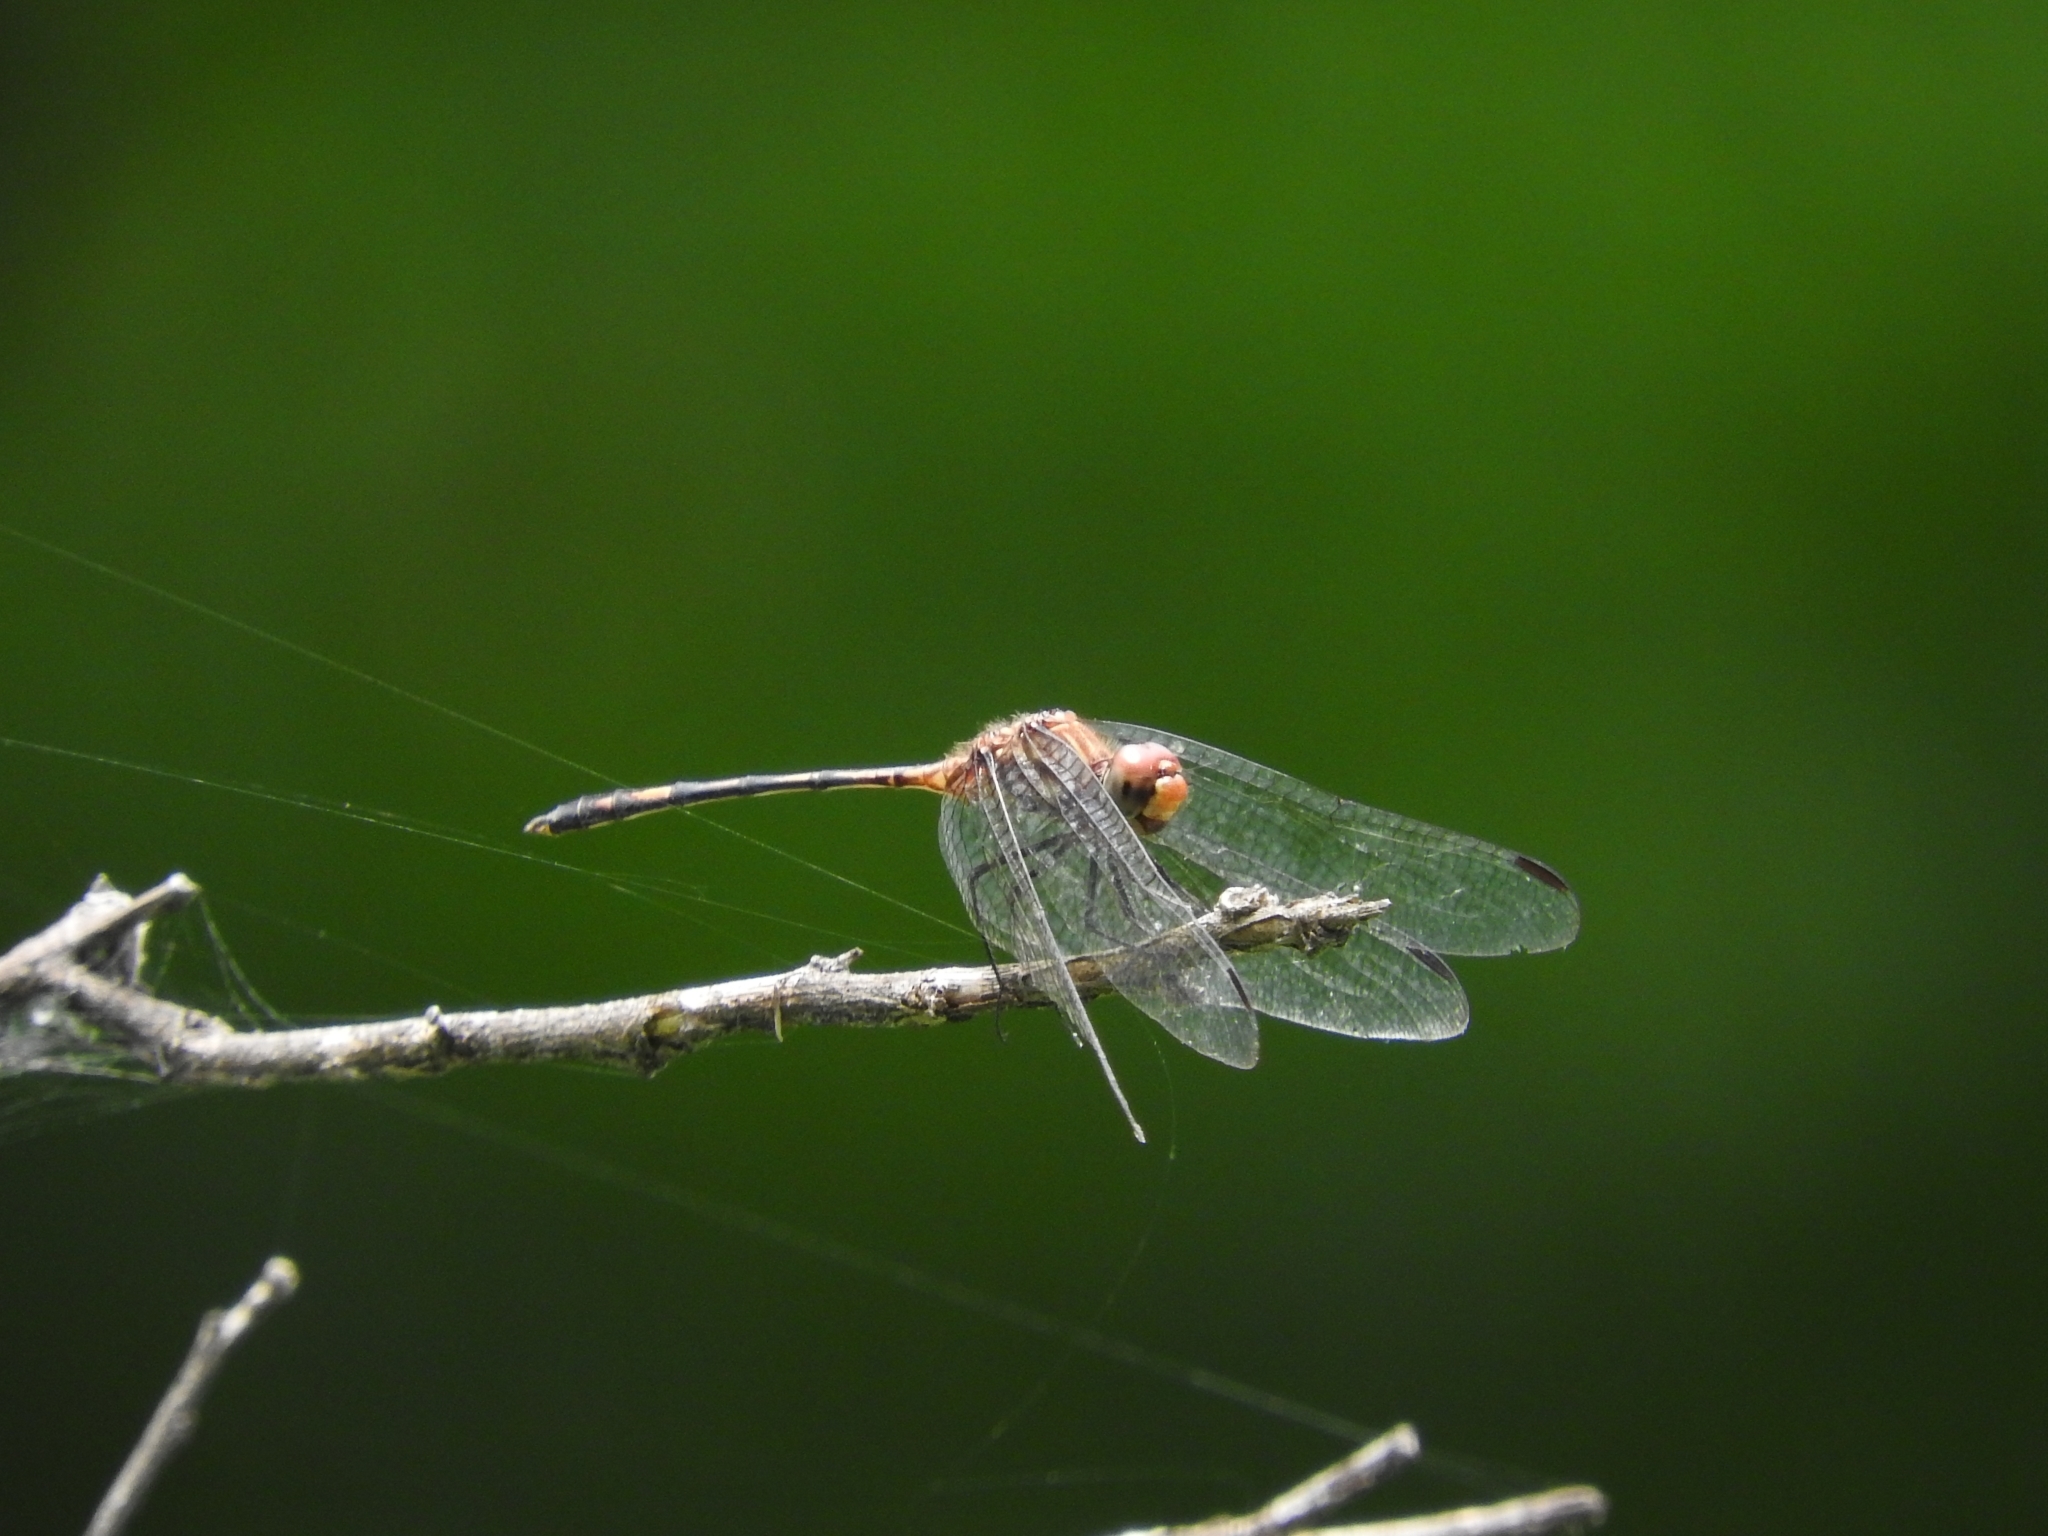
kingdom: Animalia
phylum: Arthropoda
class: Insecta
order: Odonata
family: Libellulidae
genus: Dythemis
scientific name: Dythemis sterilis
